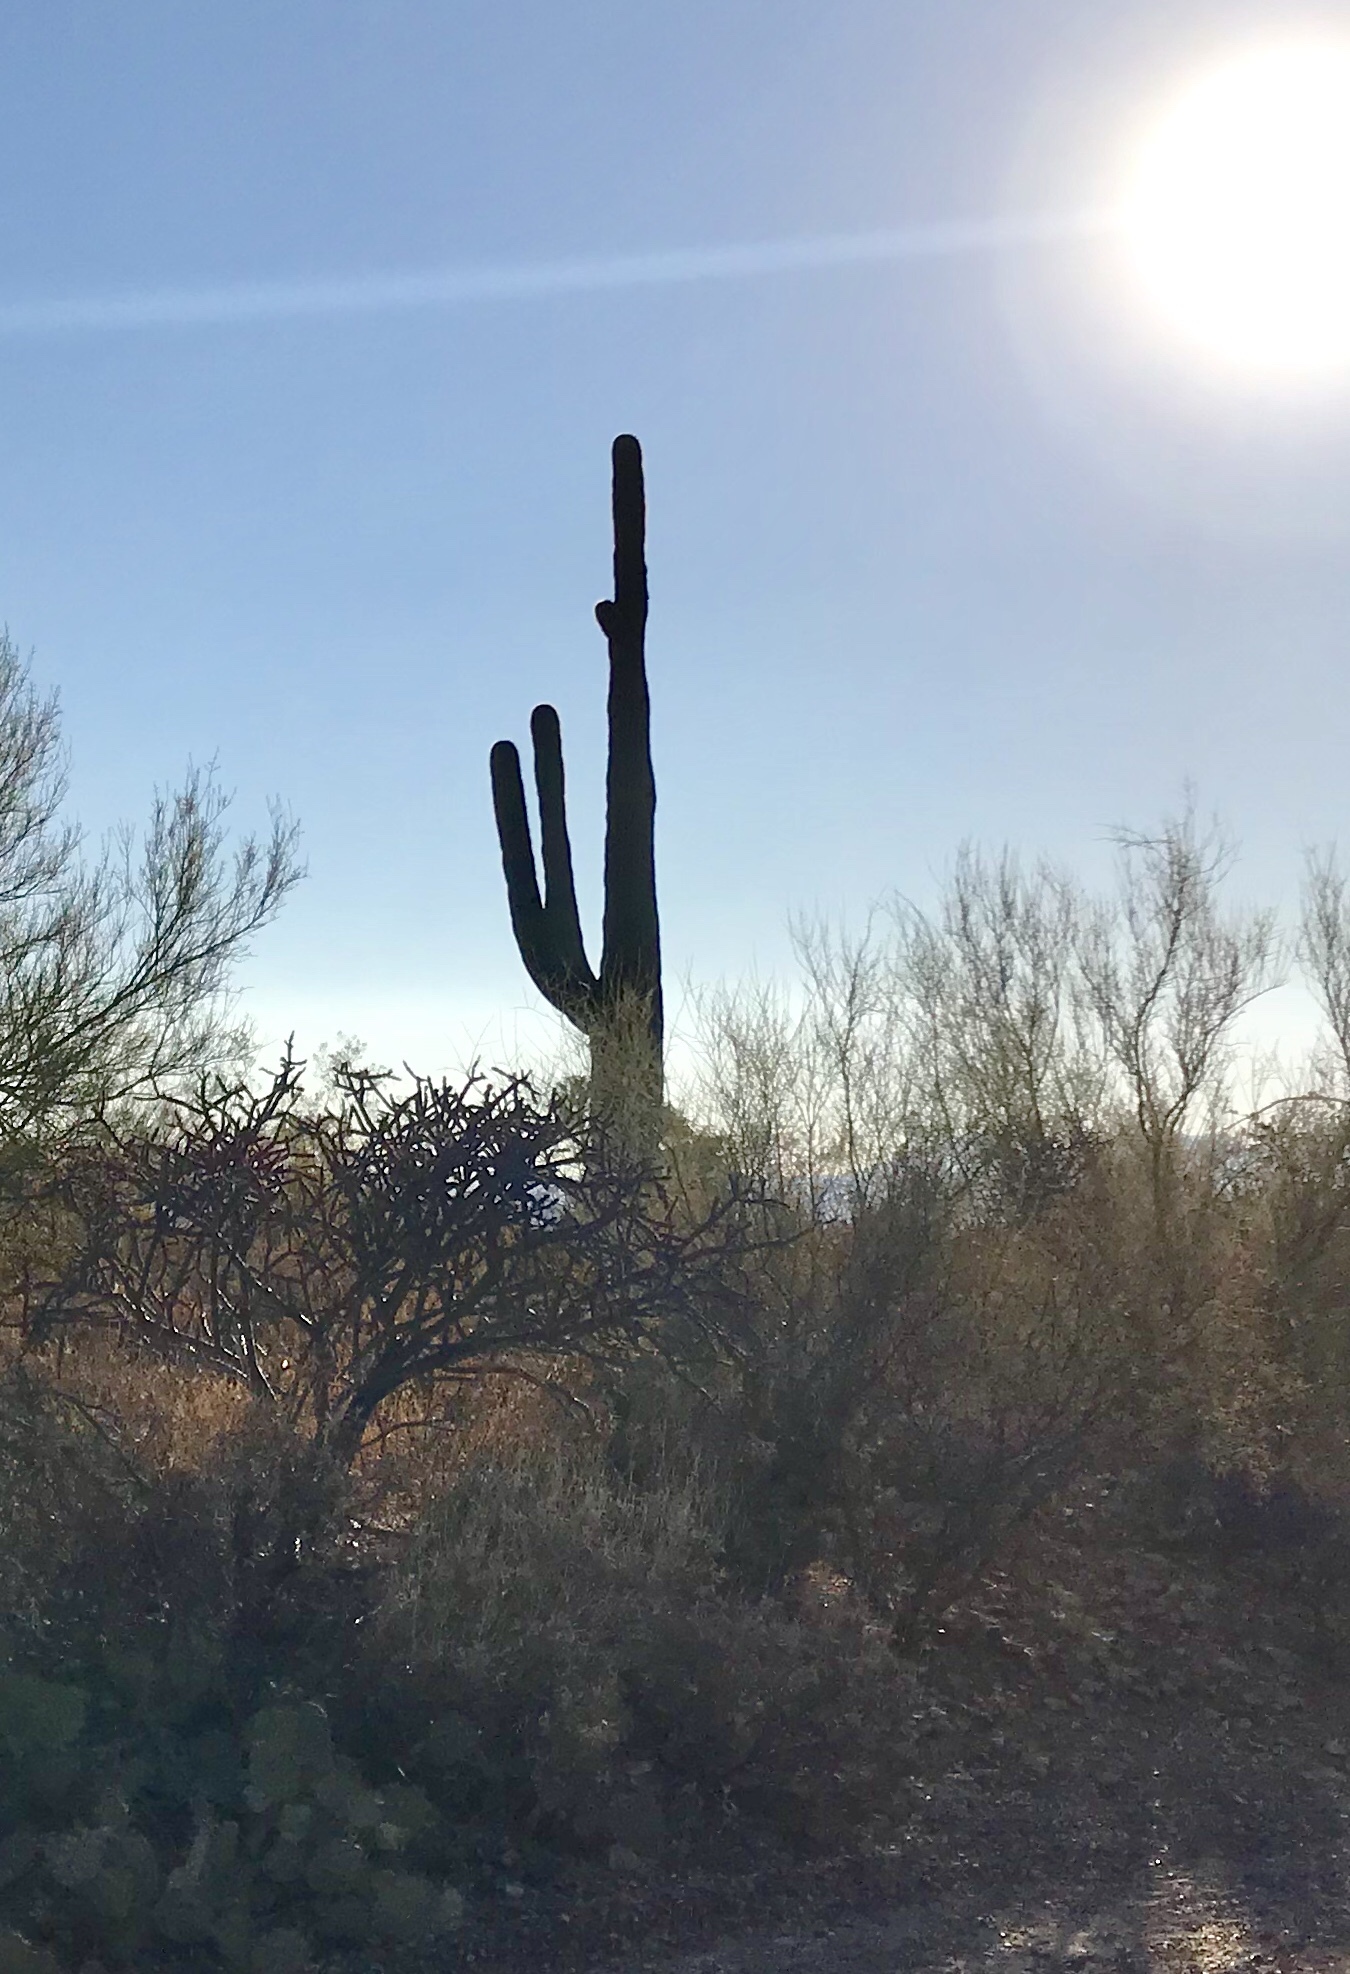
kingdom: Plantae
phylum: Tracheophyta
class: Magnoliopsida
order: Caryophyllales
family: Cactaceae
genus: Carnegiea
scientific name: Carnegiea gigantea
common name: Saguaro
